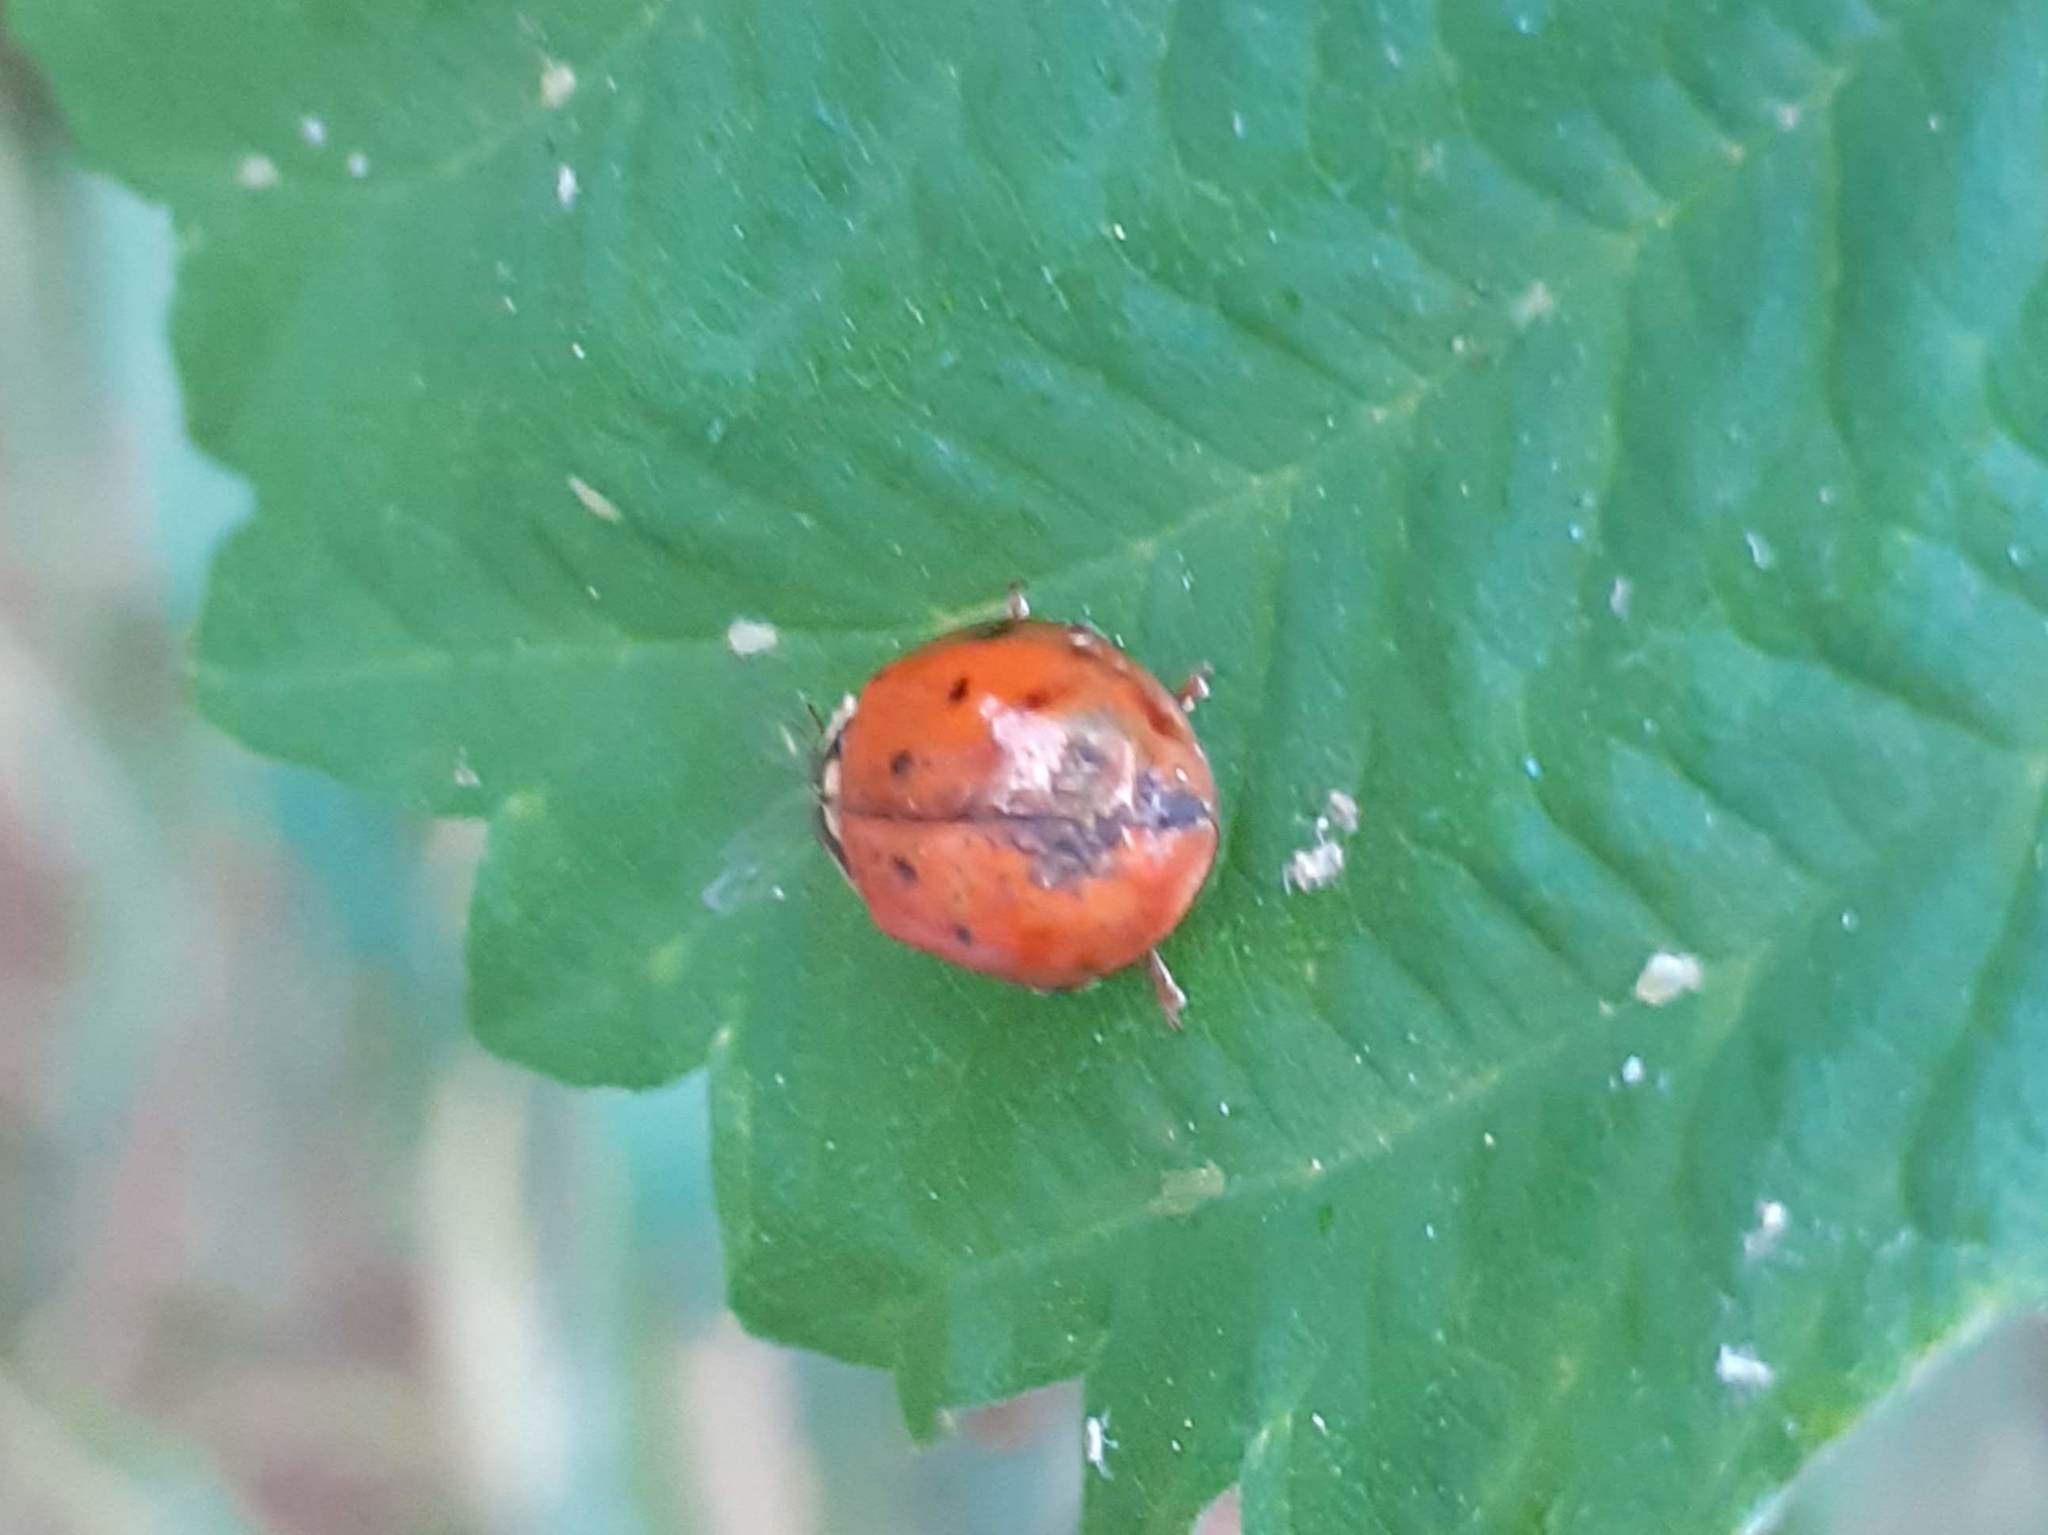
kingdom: Animalia
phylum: Arthropoda
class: Insecta
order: Coleoptera
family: Coccinellidae
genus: Harmonia
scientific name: Harmonia axyridis
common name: Harlequin ladybird
